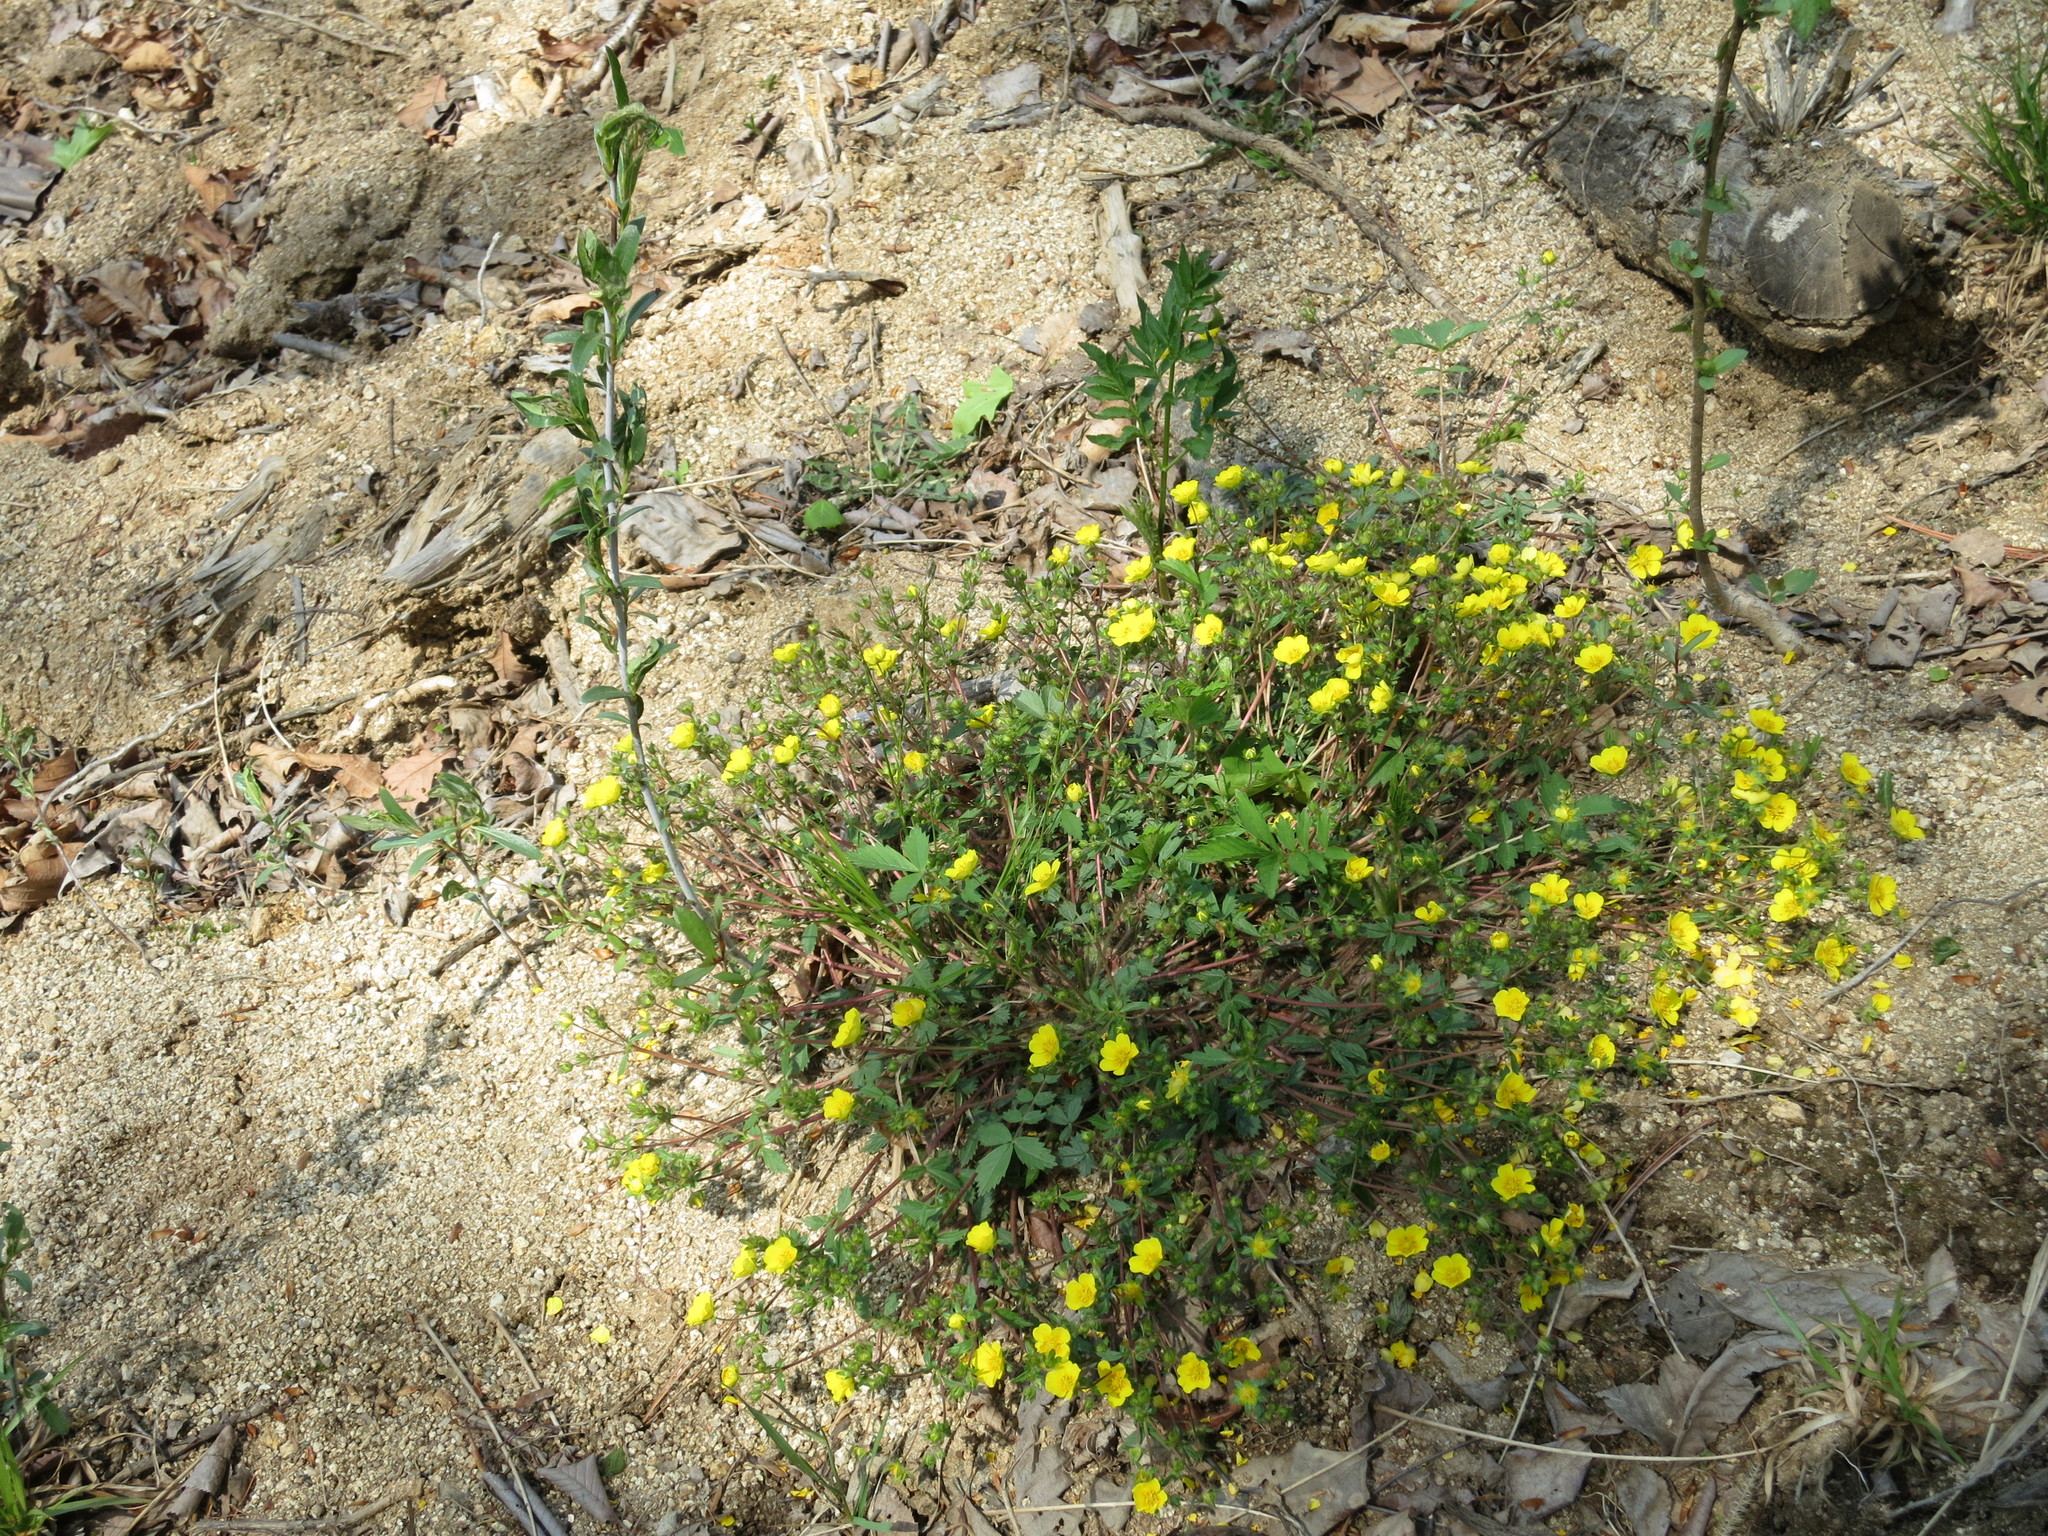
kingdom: Plantae
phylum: Tracheophyta
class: Magnoliopsida
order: Rosales
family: Rosaceae
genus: Potentilla
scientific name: Potentilla fragarioides
